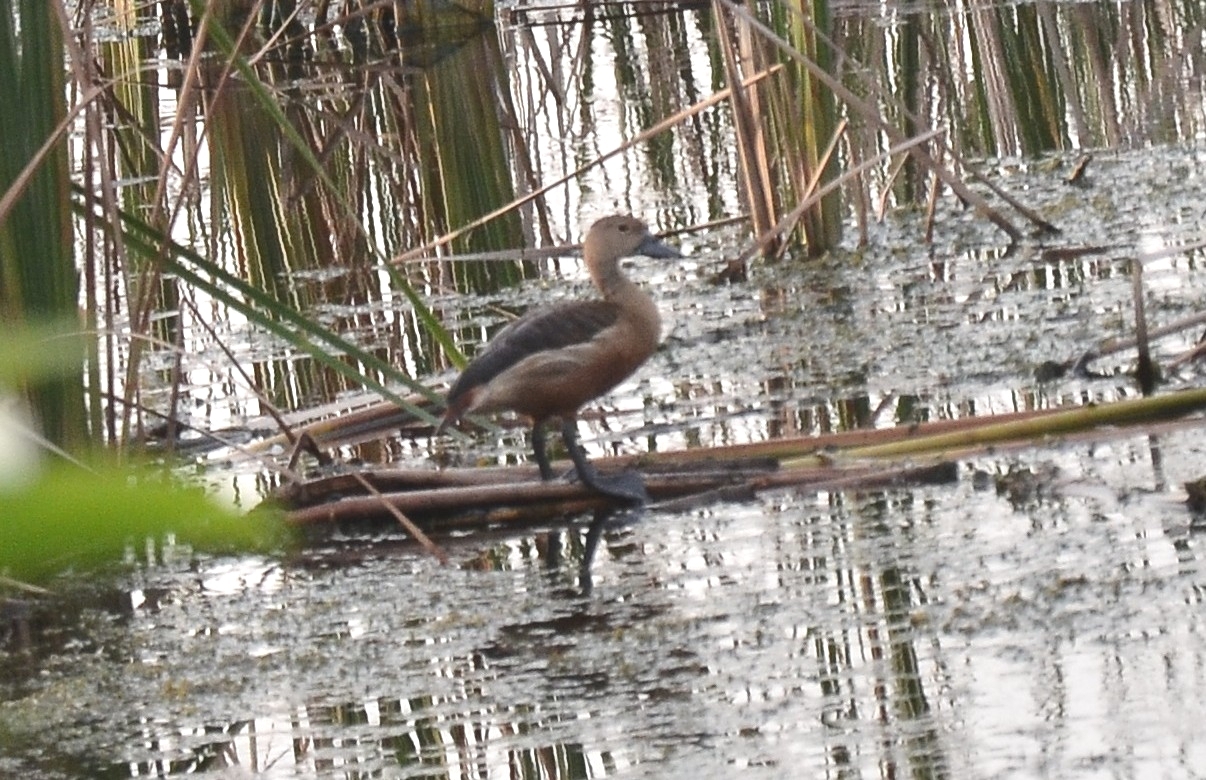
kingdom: Animalia
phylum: Chordata
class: Aves
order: Anseriformes
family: Anatidae
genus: Dendrocygna
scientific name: Dendrocygna javanica
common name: Lesser whistling-duck
